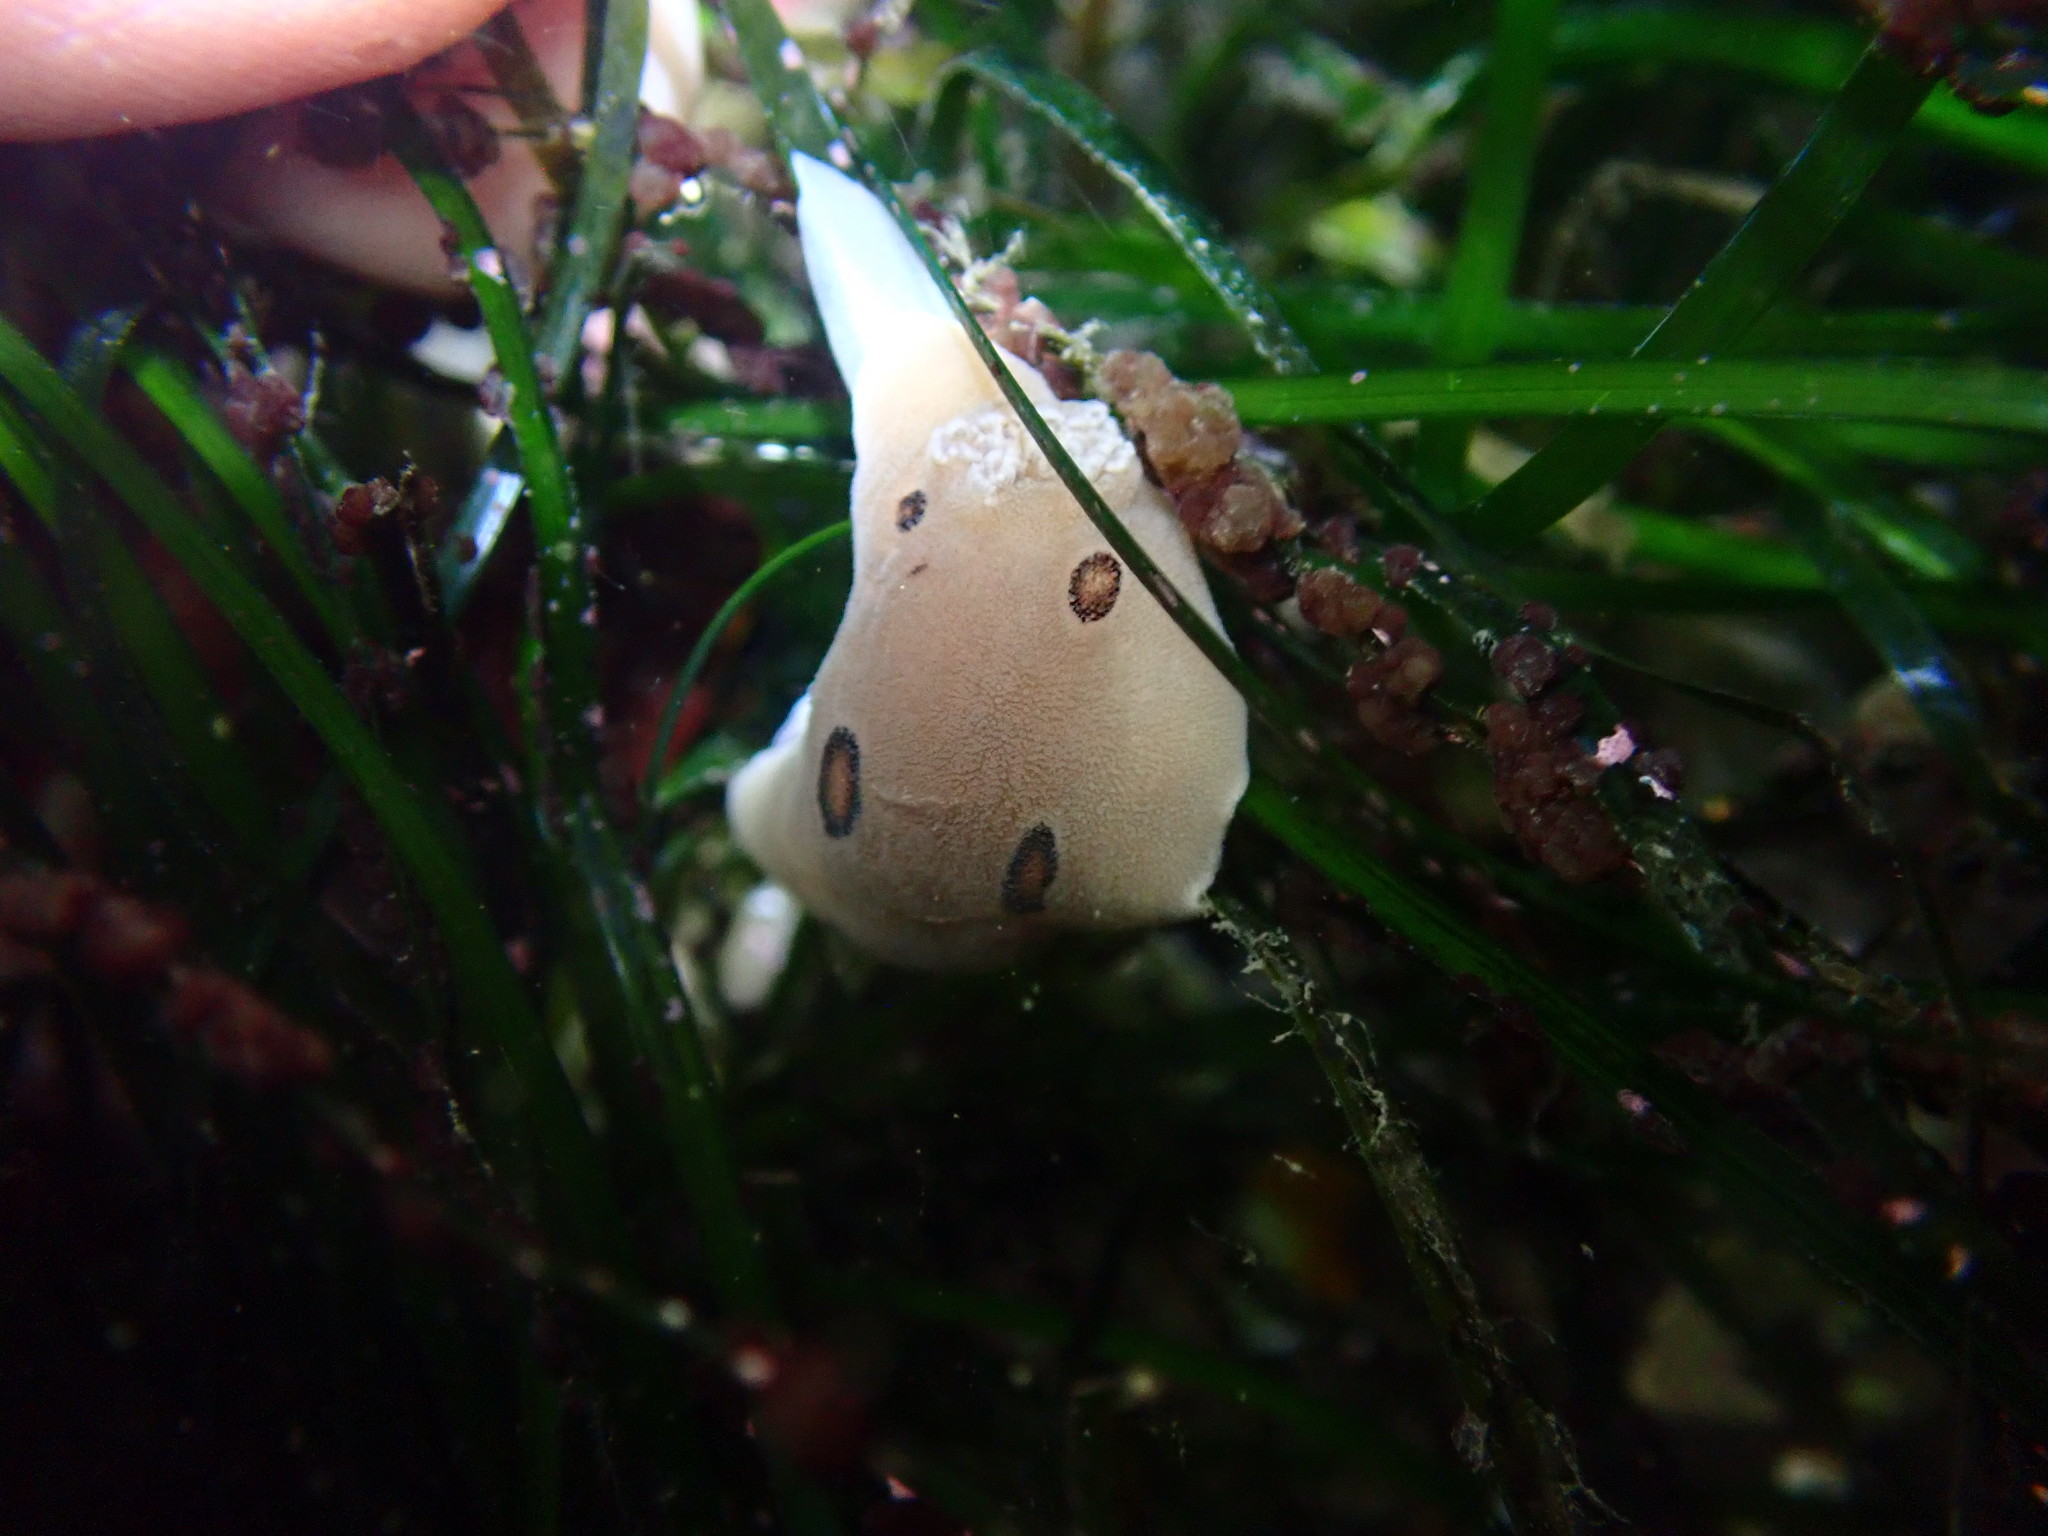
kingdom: Animalia
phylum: Mollusca
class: Gastropoda
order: Nudibranchia
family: Discodorididae
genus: Diaulula
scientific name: Diaulula sandiegensis
